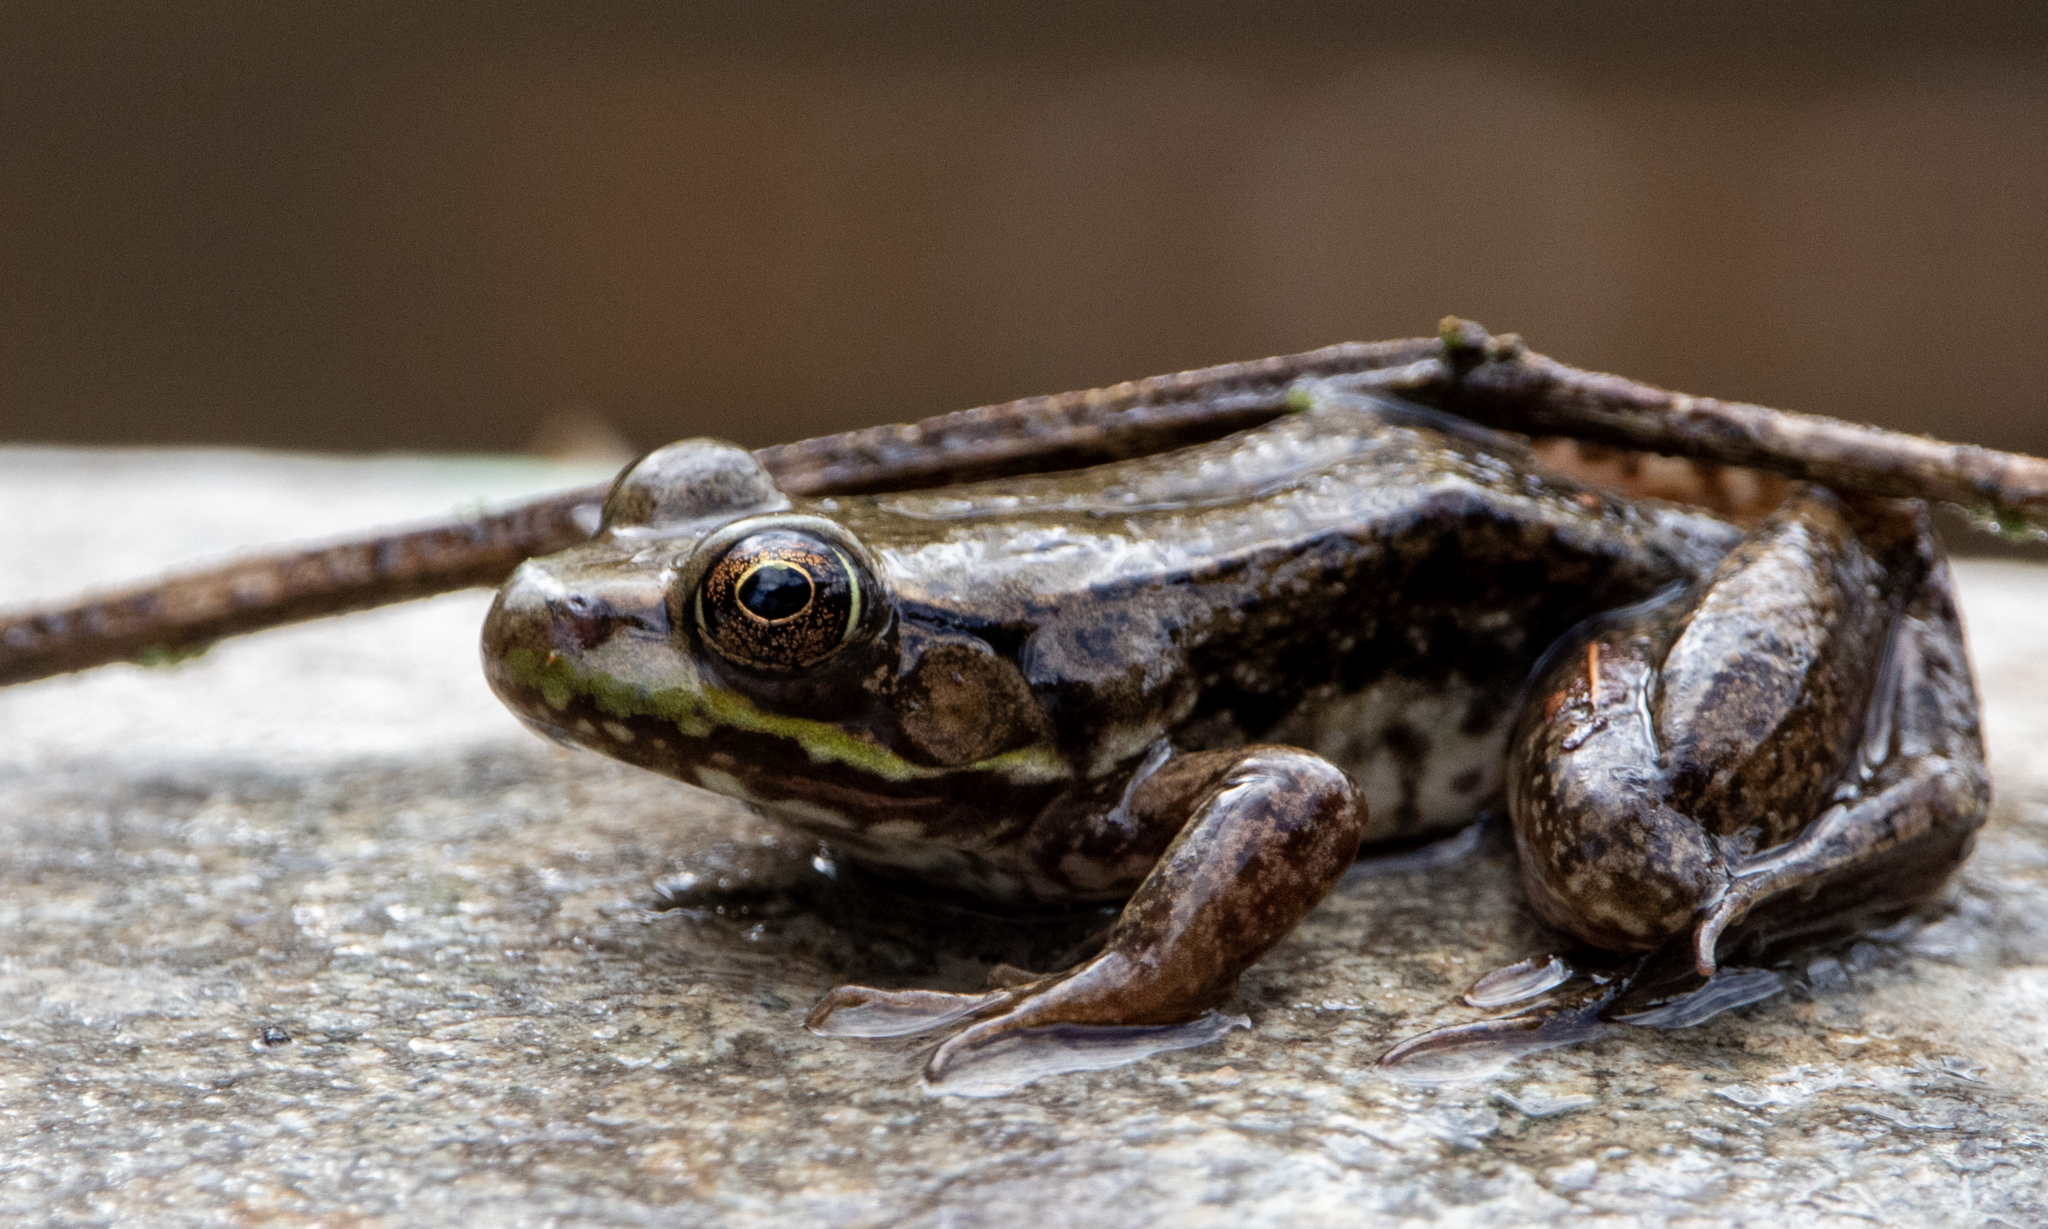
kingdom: Animalia
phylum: Chordata
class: Amphibia
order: Anura
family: Ranidae
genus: Lithobates
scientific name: Lithobates clamitans
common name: Green frog
